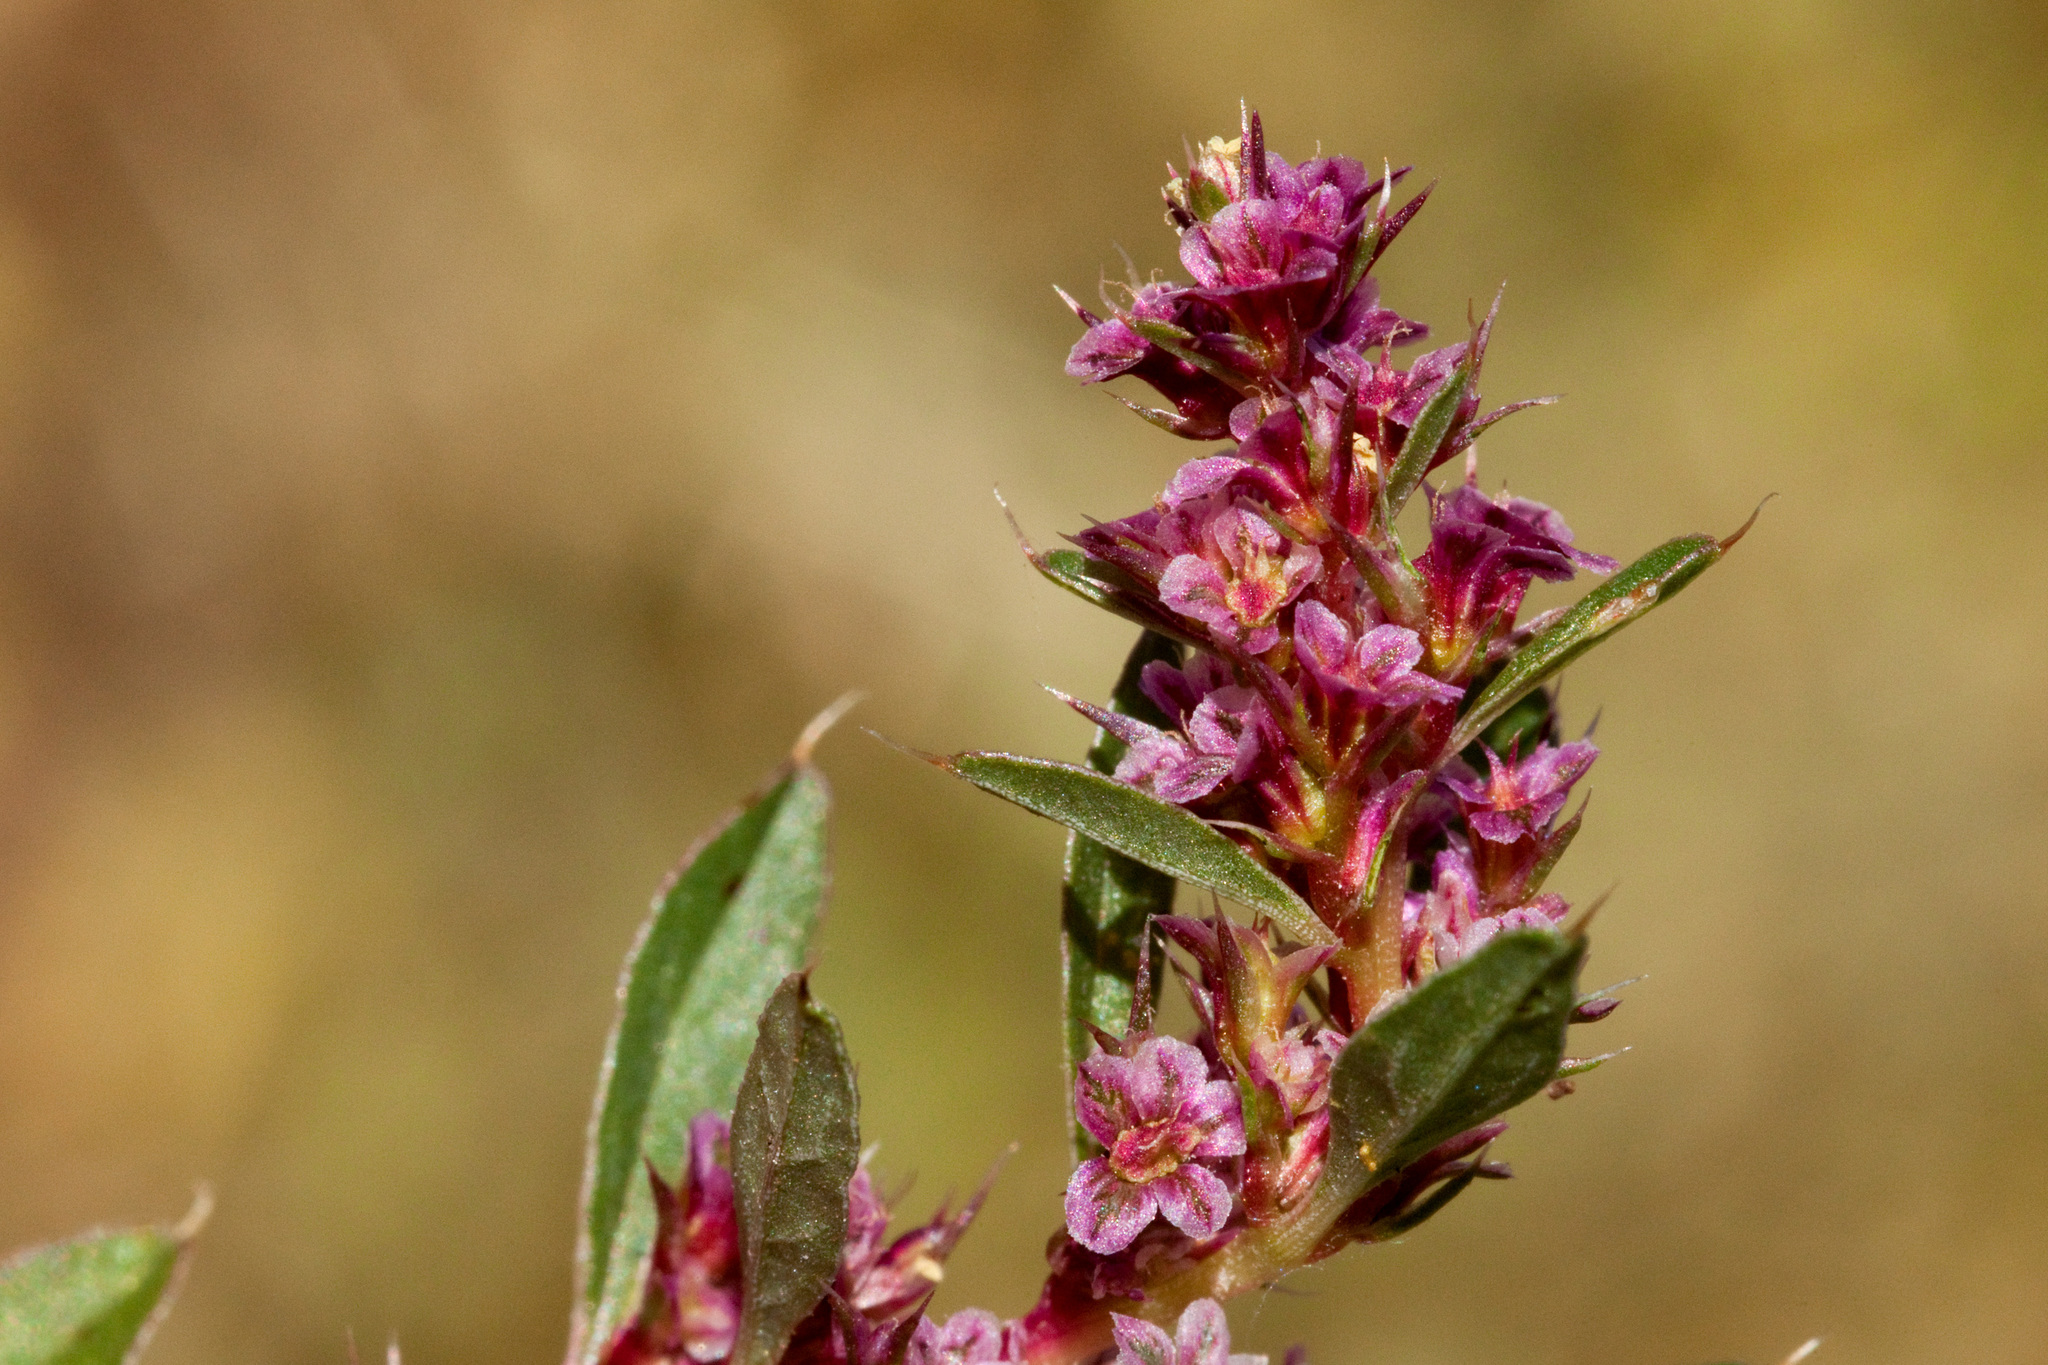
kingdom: Plantae
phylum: Tracheophyta
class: Magnoliopsida
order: Caryophyllales
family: Amaranthaceae
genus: Amaranthus
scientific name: Amaranthus torreyi
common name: Bigelow's amaranth
